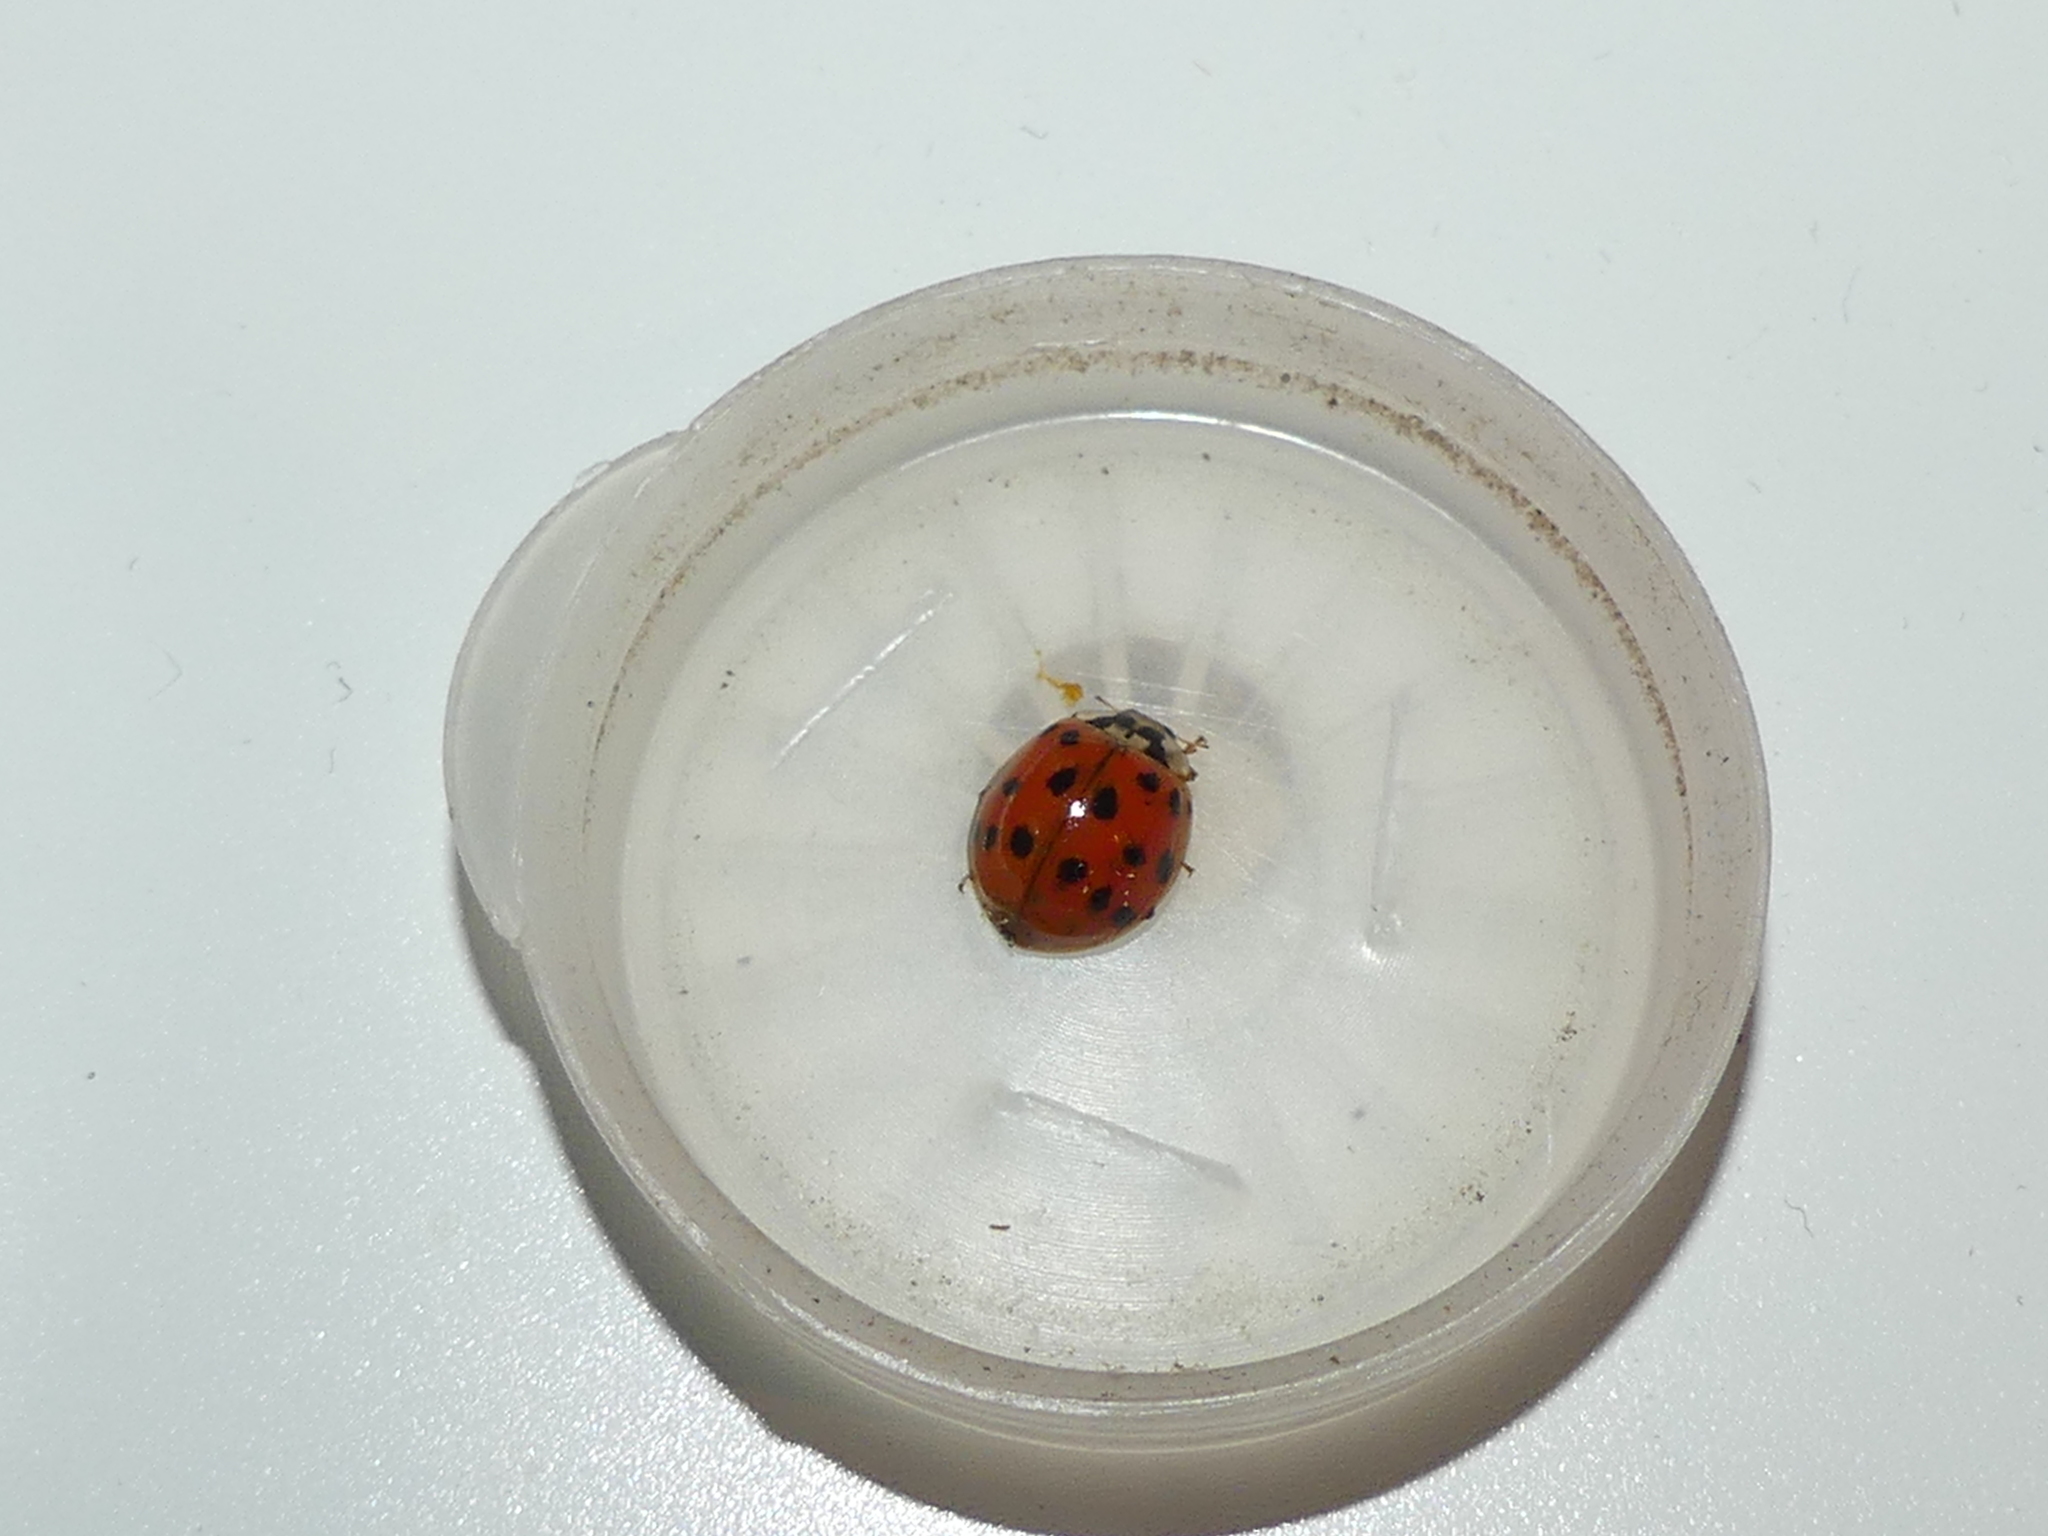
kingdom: Animalia
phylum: Arthropoda
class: Insecta
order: Coleoptera
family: Coccinellidae
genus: Harmonia
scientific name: Harmonia axyridis
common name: Harlequin ladybird
